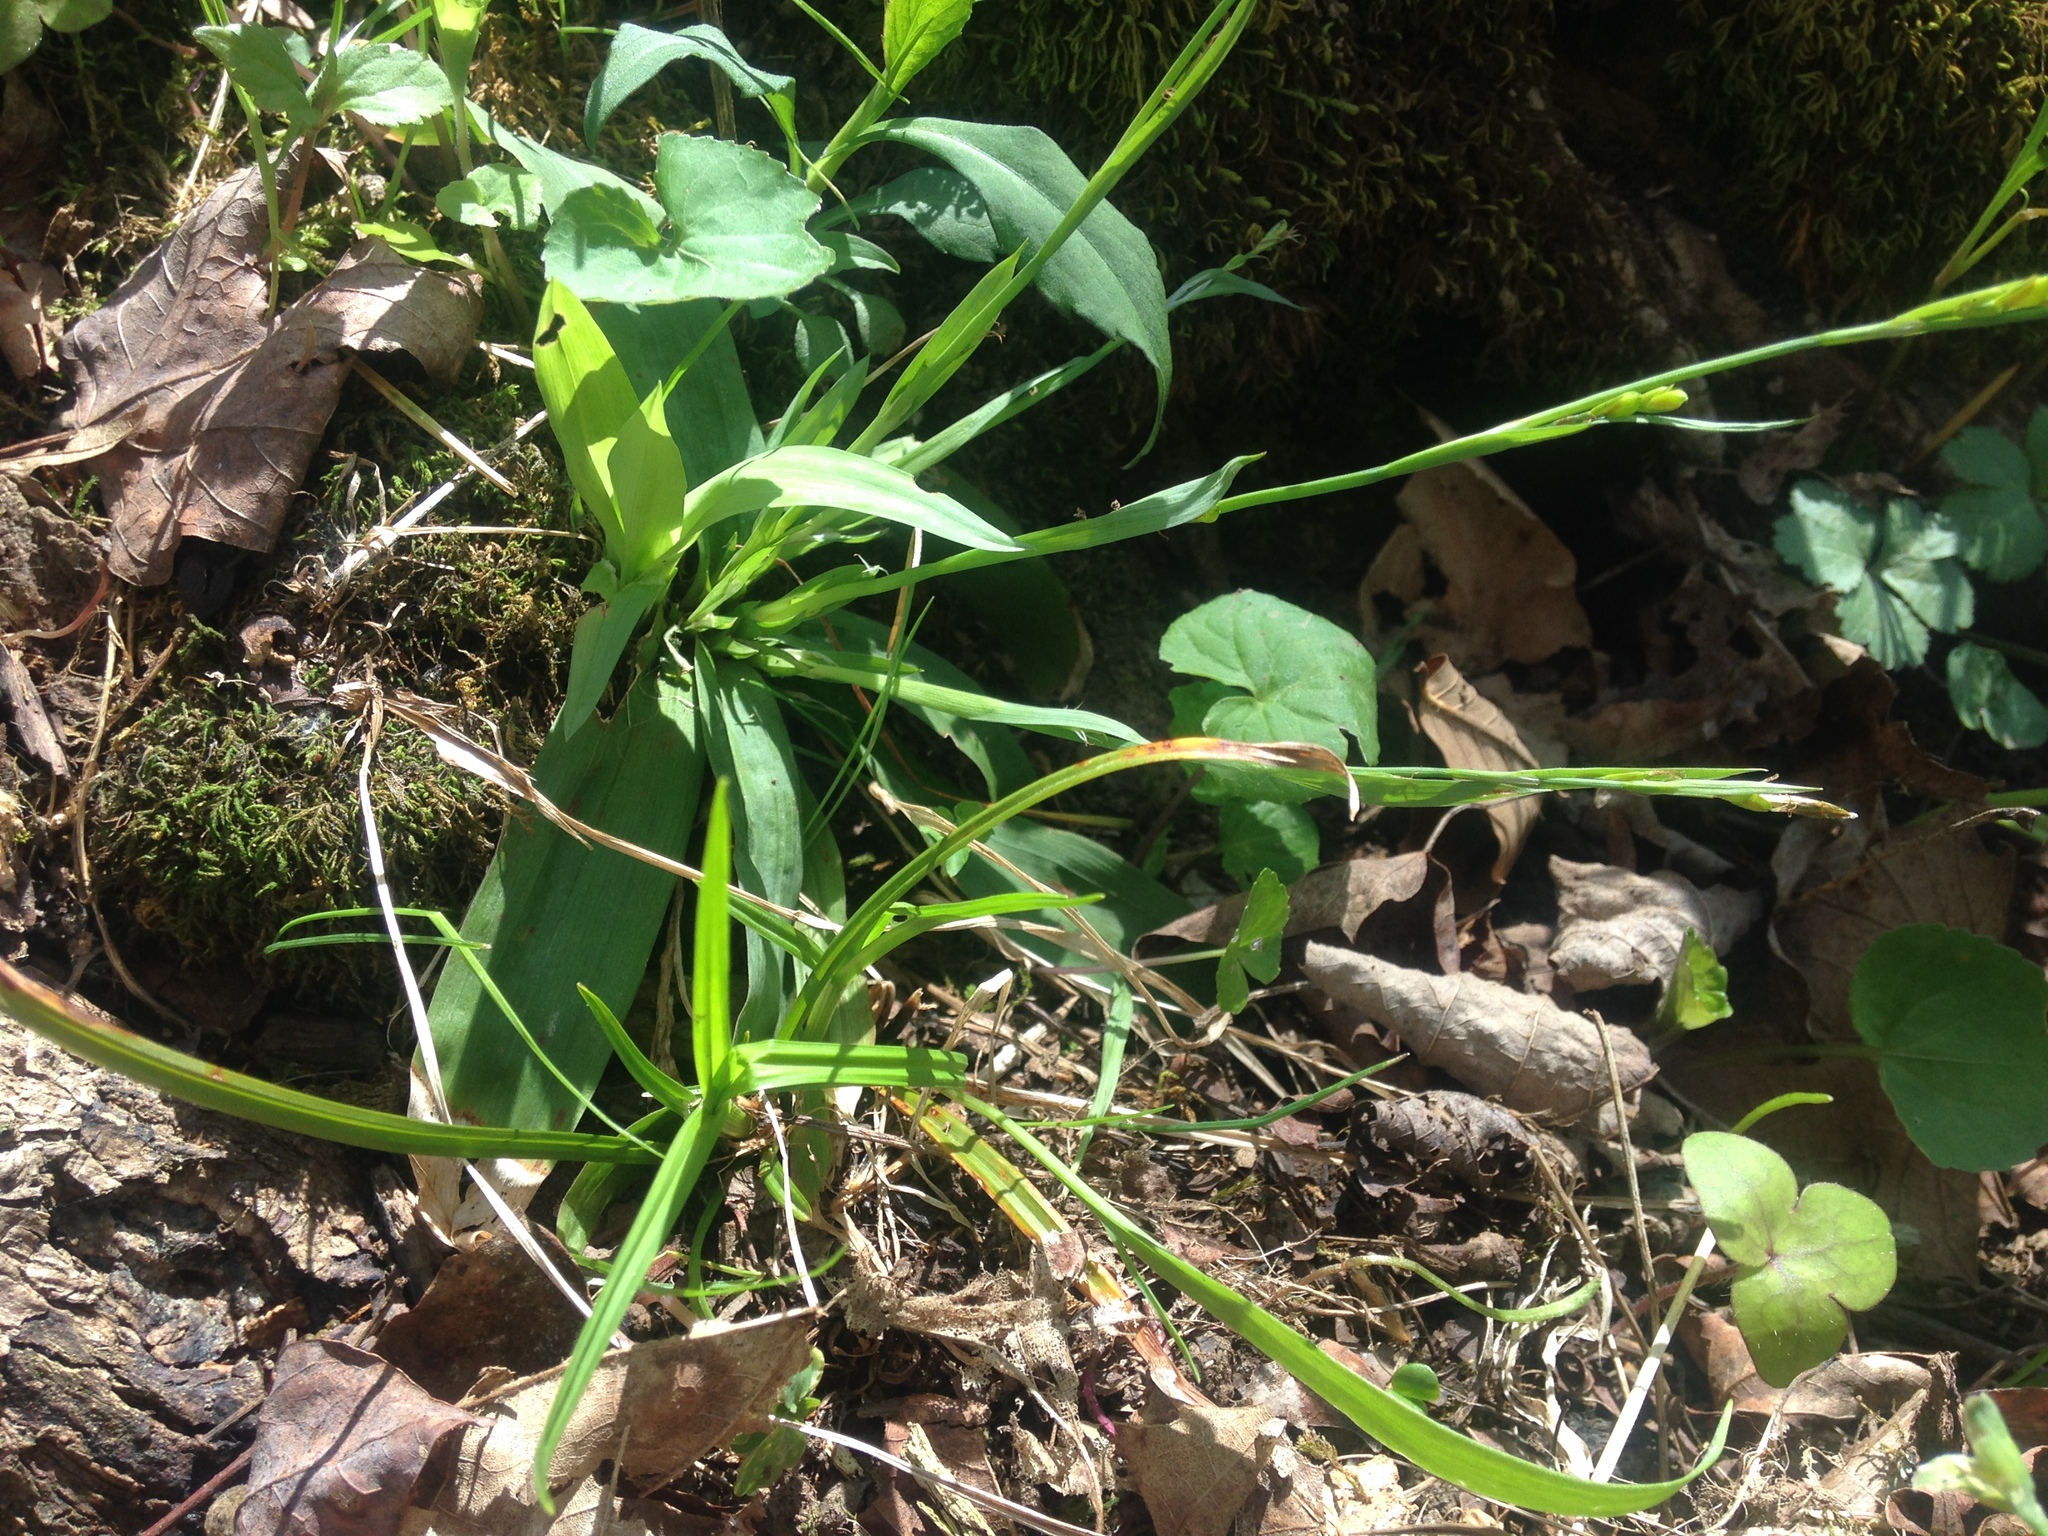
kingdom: Plantae
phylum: Tracheophyta
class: Liliopsida
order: Poales
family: Cyperaceae
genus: Carex
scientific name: Carex platyphylla
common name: Broad-leaved sedge
